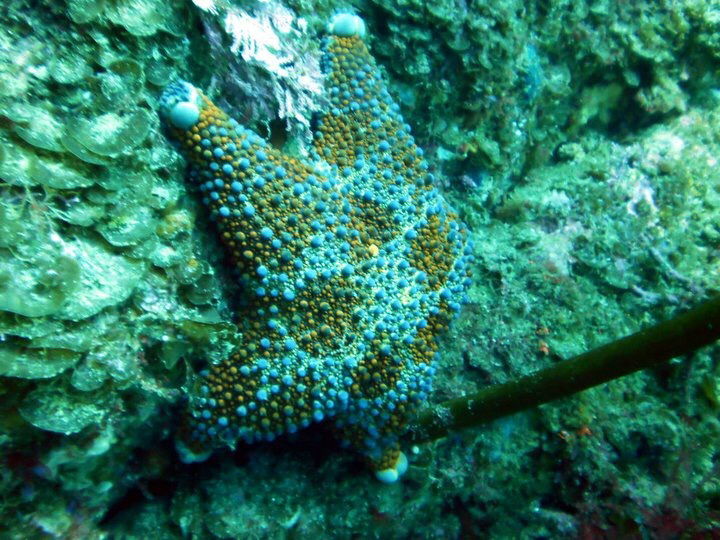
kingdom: Animalia
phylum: Echinodermata
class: Asteroidea
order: Valvatida
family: Asterodiscididae
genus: Asterodiscides
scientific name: Asterodiscides truncatus
